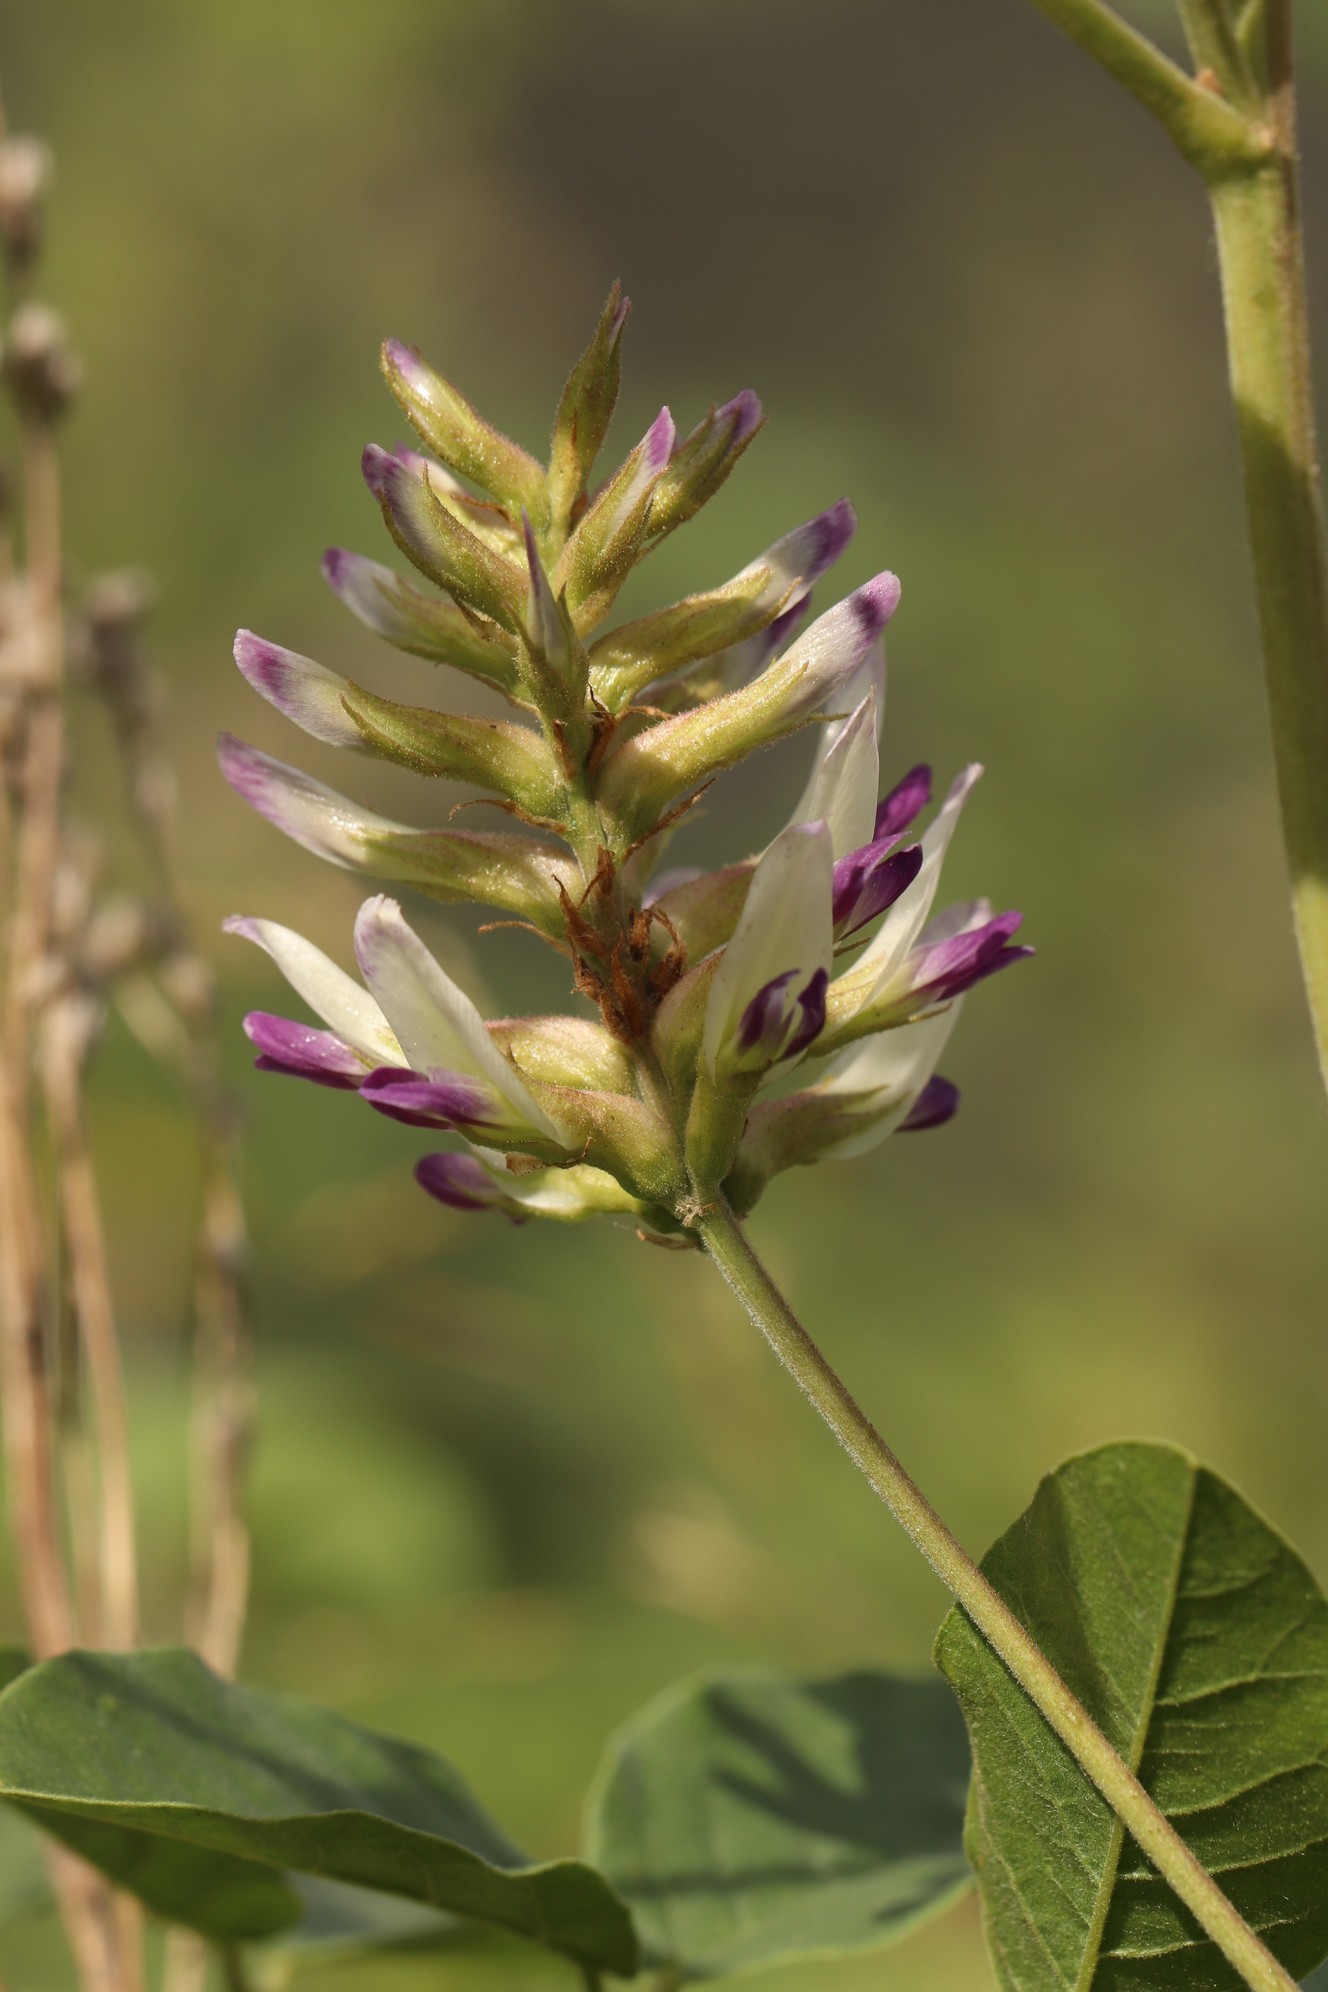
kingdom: Plantae
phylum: Tracheophyta
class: Magnoliopsida
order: Fabales
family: Fabaceae
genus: Glycyrrhiza
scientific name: Glycyrrhiza uralensis
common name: Chinese licorice
